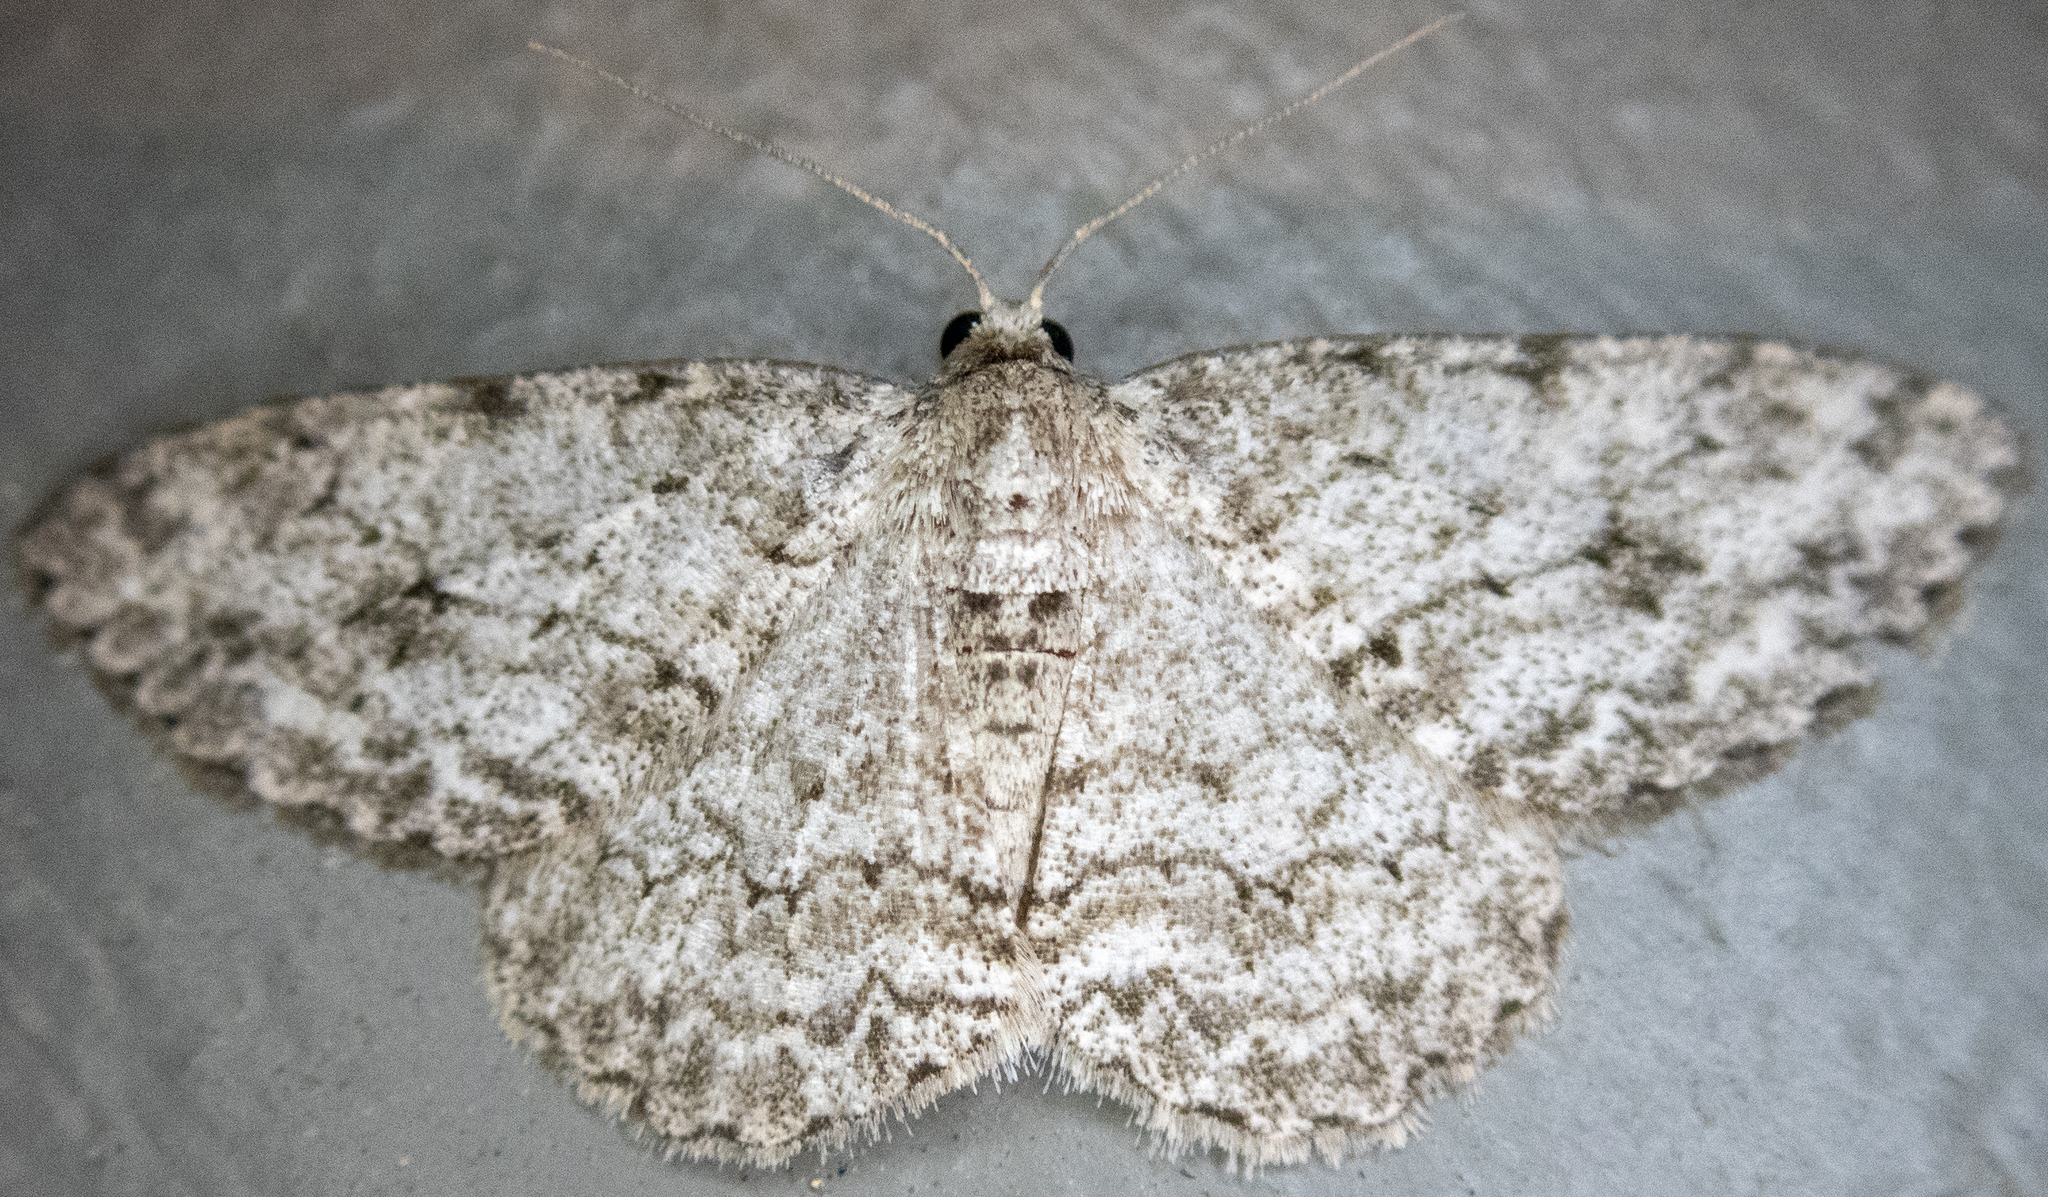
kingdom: Animalia
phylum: Arthropoda
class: Insecta
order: Lepidoptera
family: Geometridae
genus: Ectropis
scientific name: Ectropis crepuscularia
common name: Engrailed
